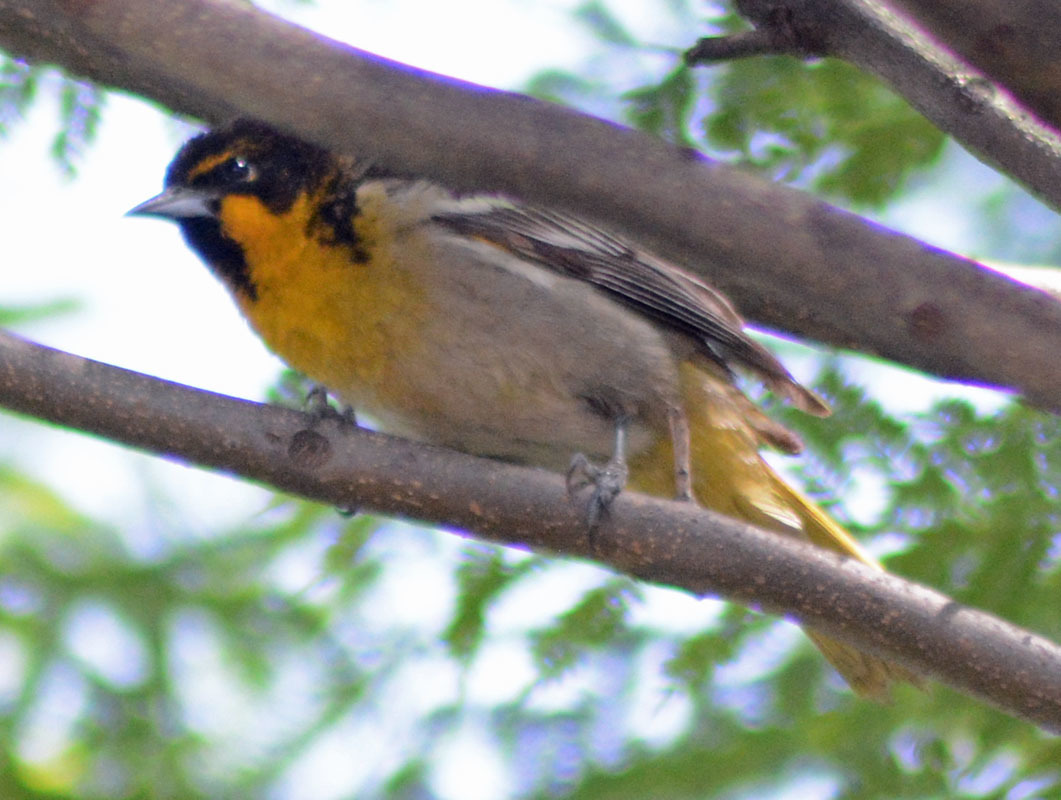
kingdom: Animalia
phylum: Chordata
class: Aves
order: Passeriformes
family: Icteridae
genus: Icterus
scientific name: Icterus abeillei
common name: Black-backed oriole
